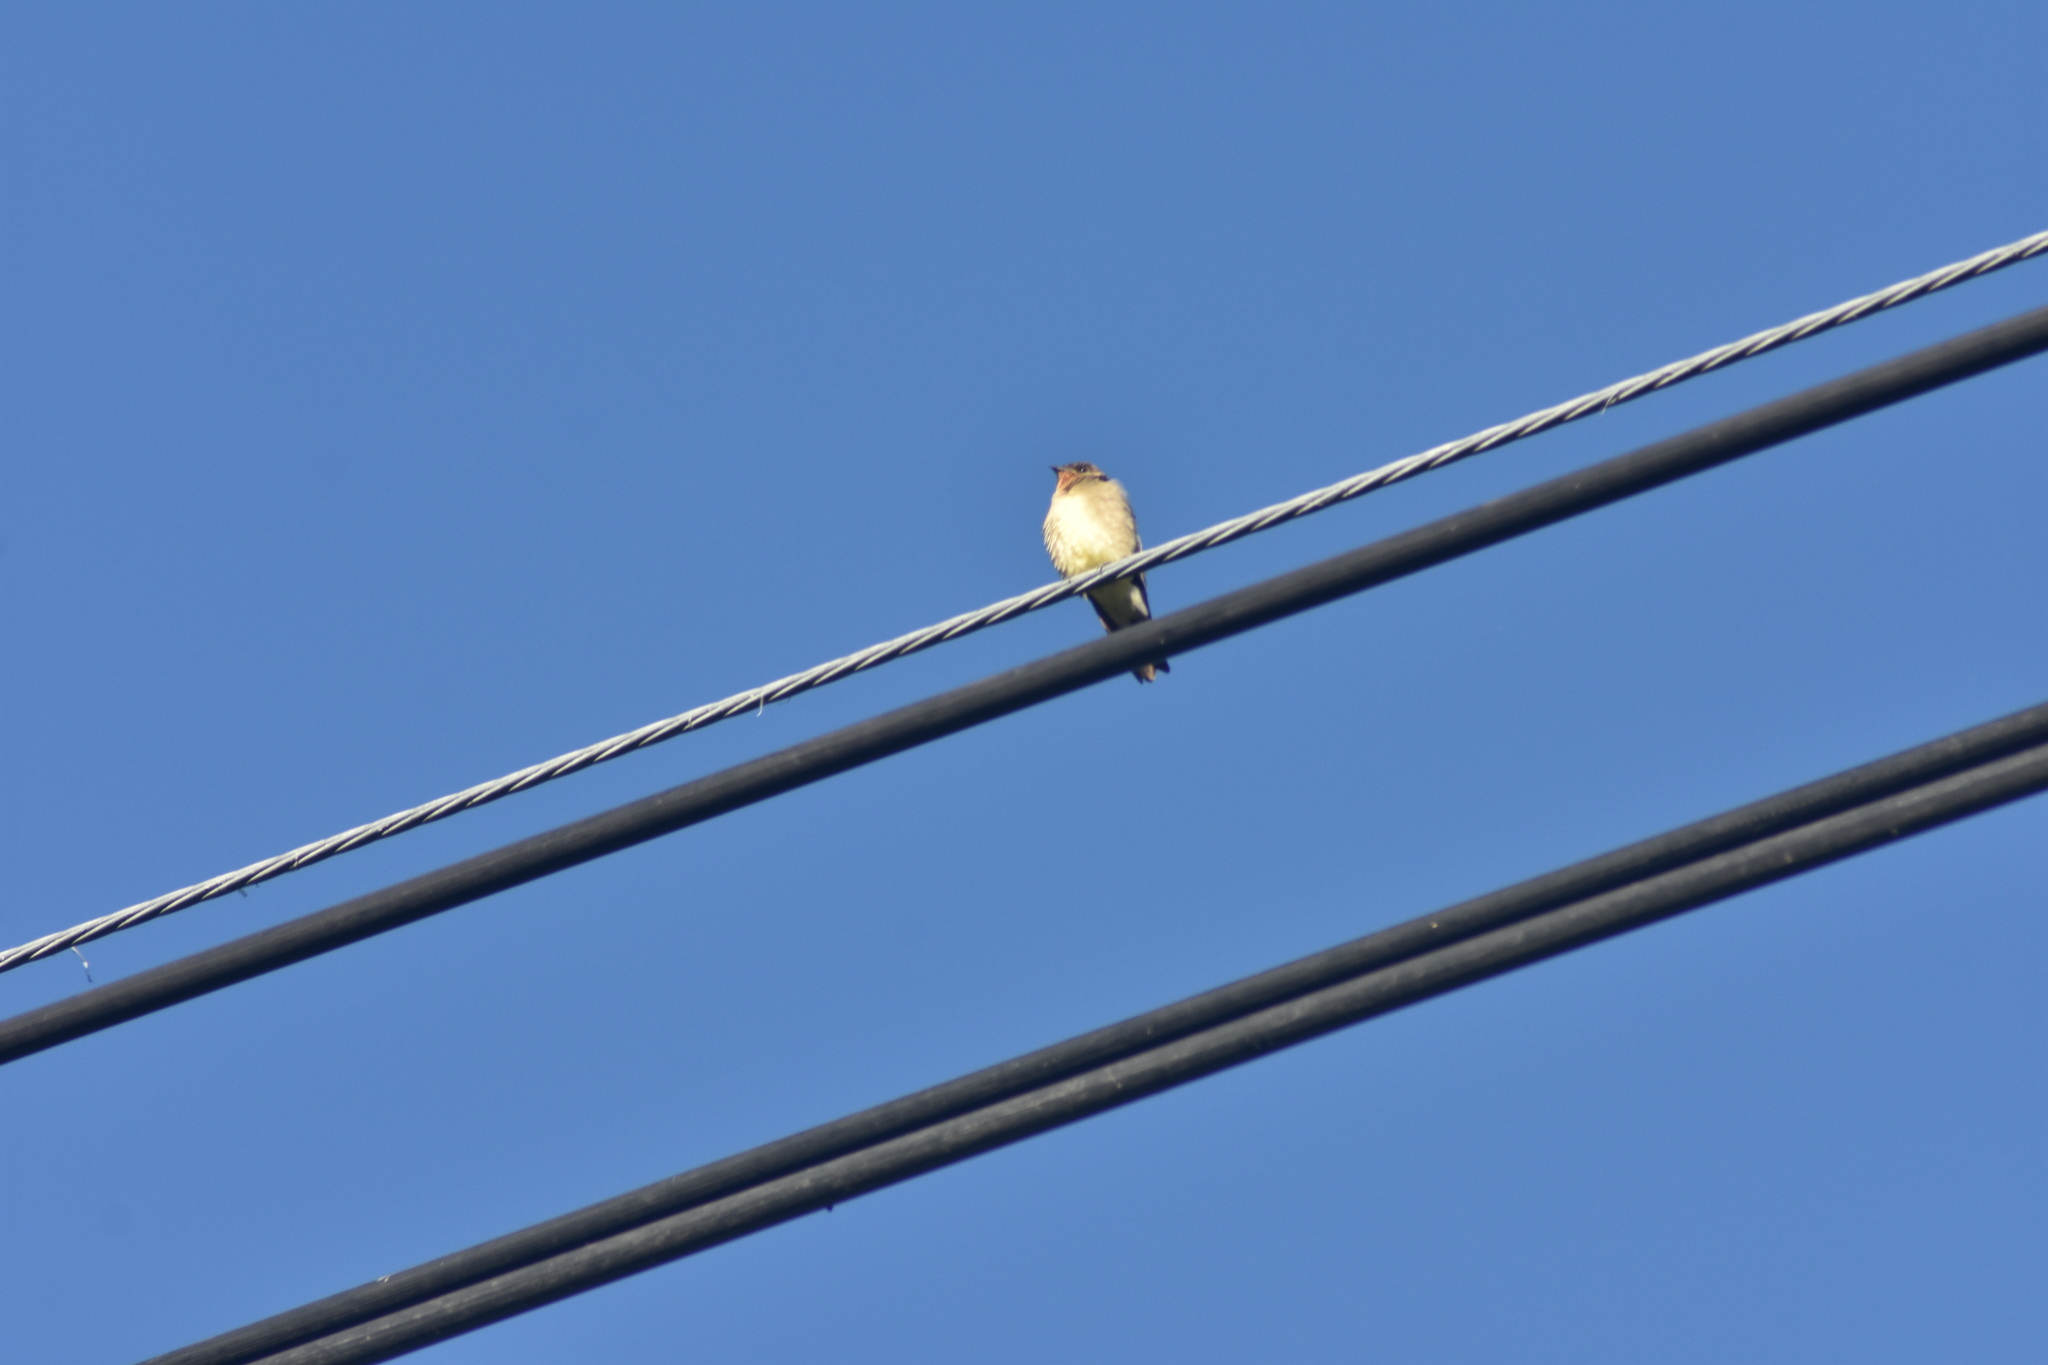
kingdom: Animalia
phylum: Chordata
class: Aves
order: Passeriformes
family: Hirundinidae
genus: Stelgidopteryx
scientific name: Stelgidopteryx ruficollis
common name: Southern rough-winged swallow
